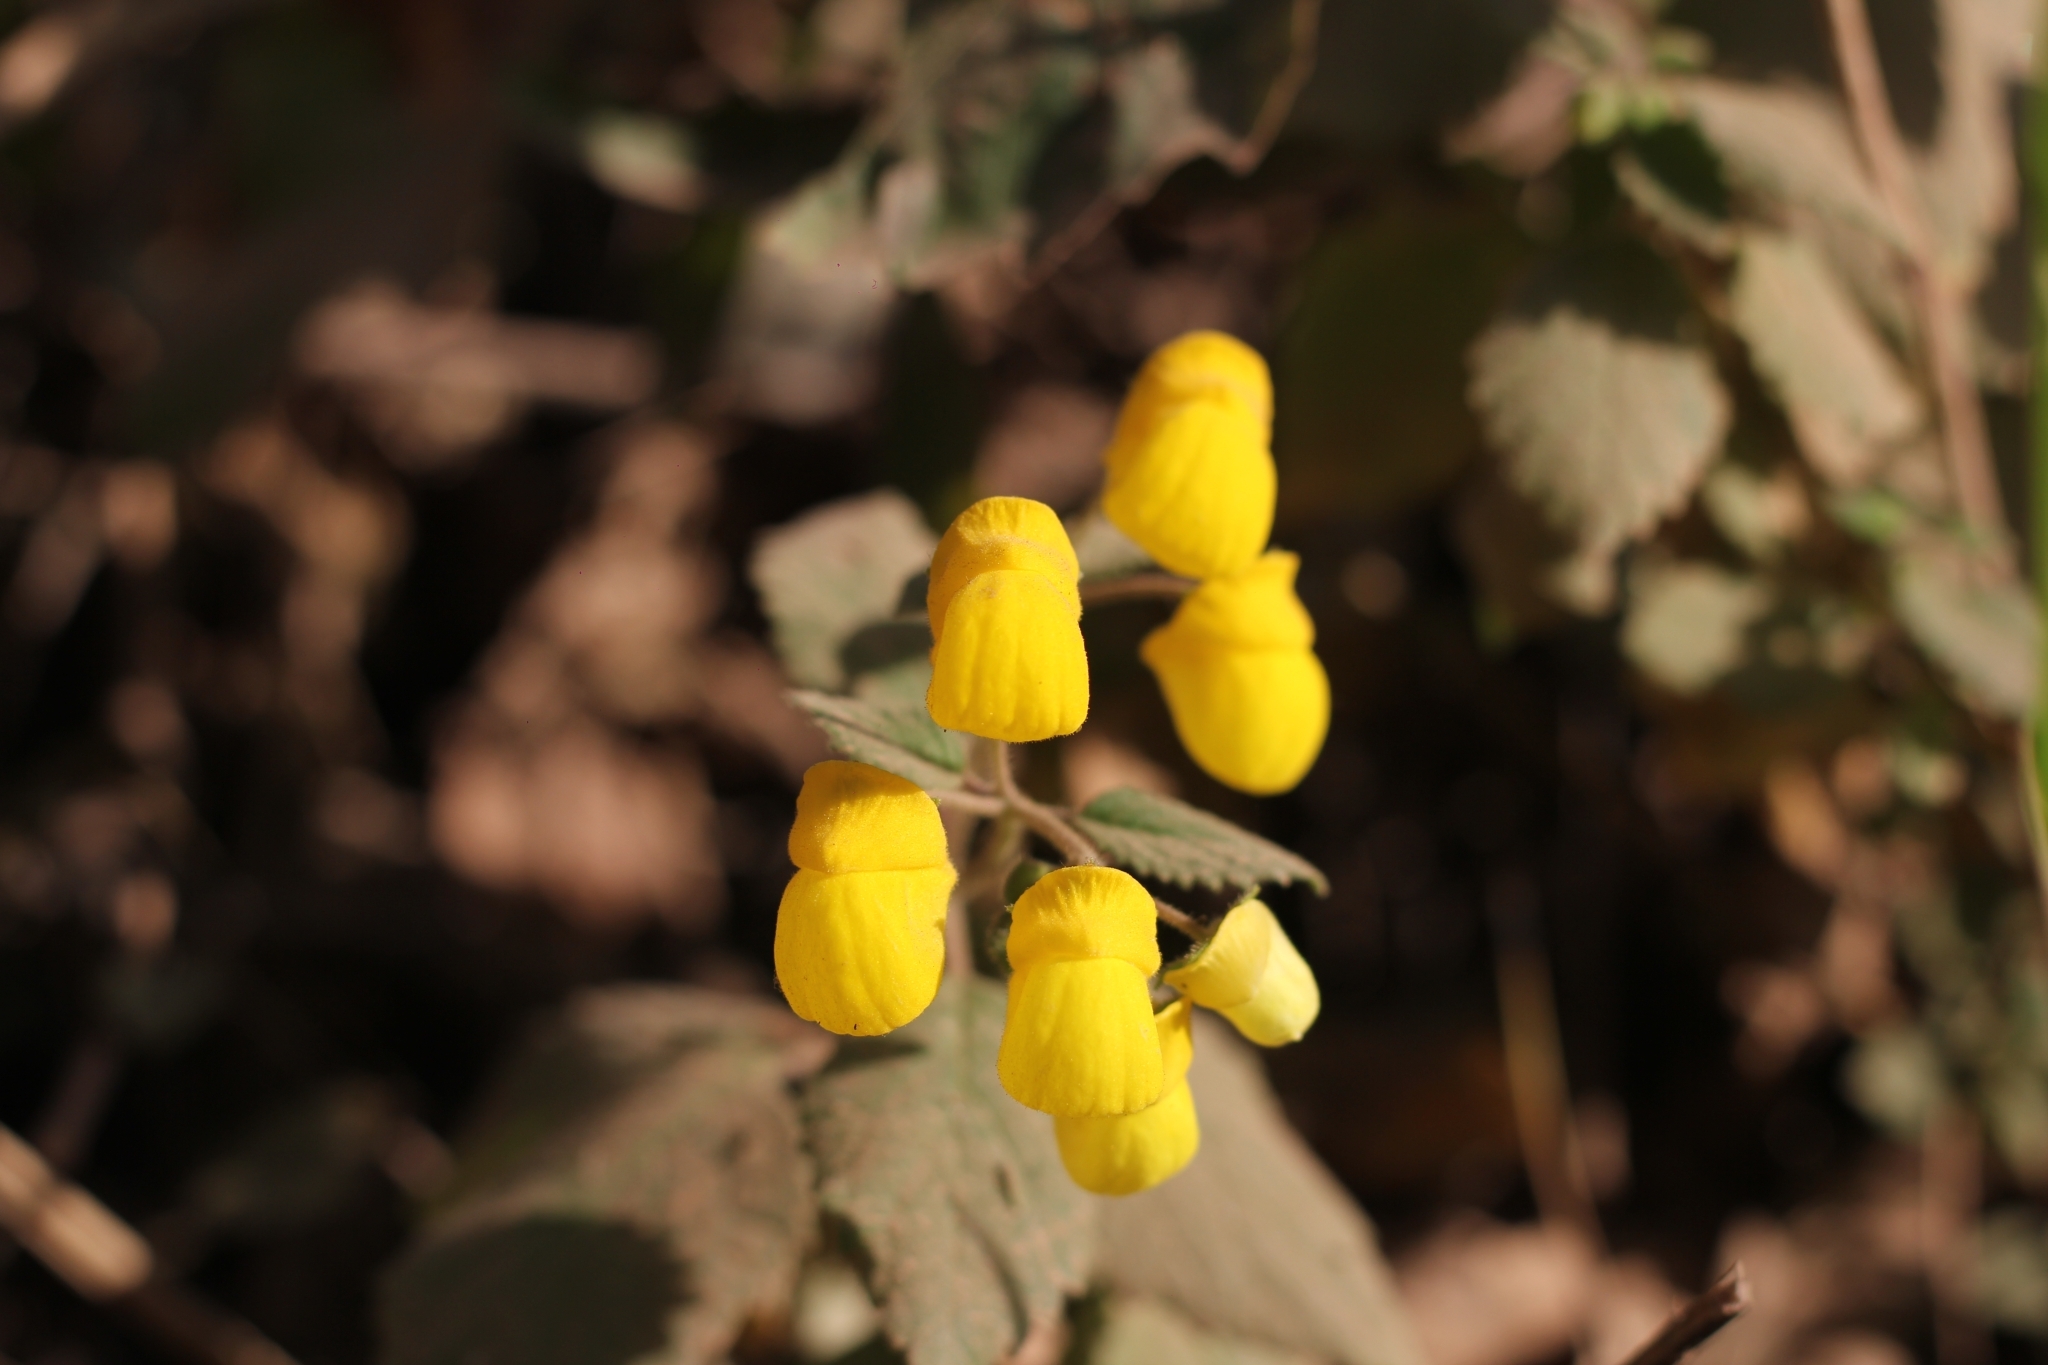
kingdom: Plantae
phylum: Tracheophyta
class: Magnoliopsida
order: Lamiales
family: Calceolariaceae
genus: Calceolaria
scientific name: Calceolaria elatior
